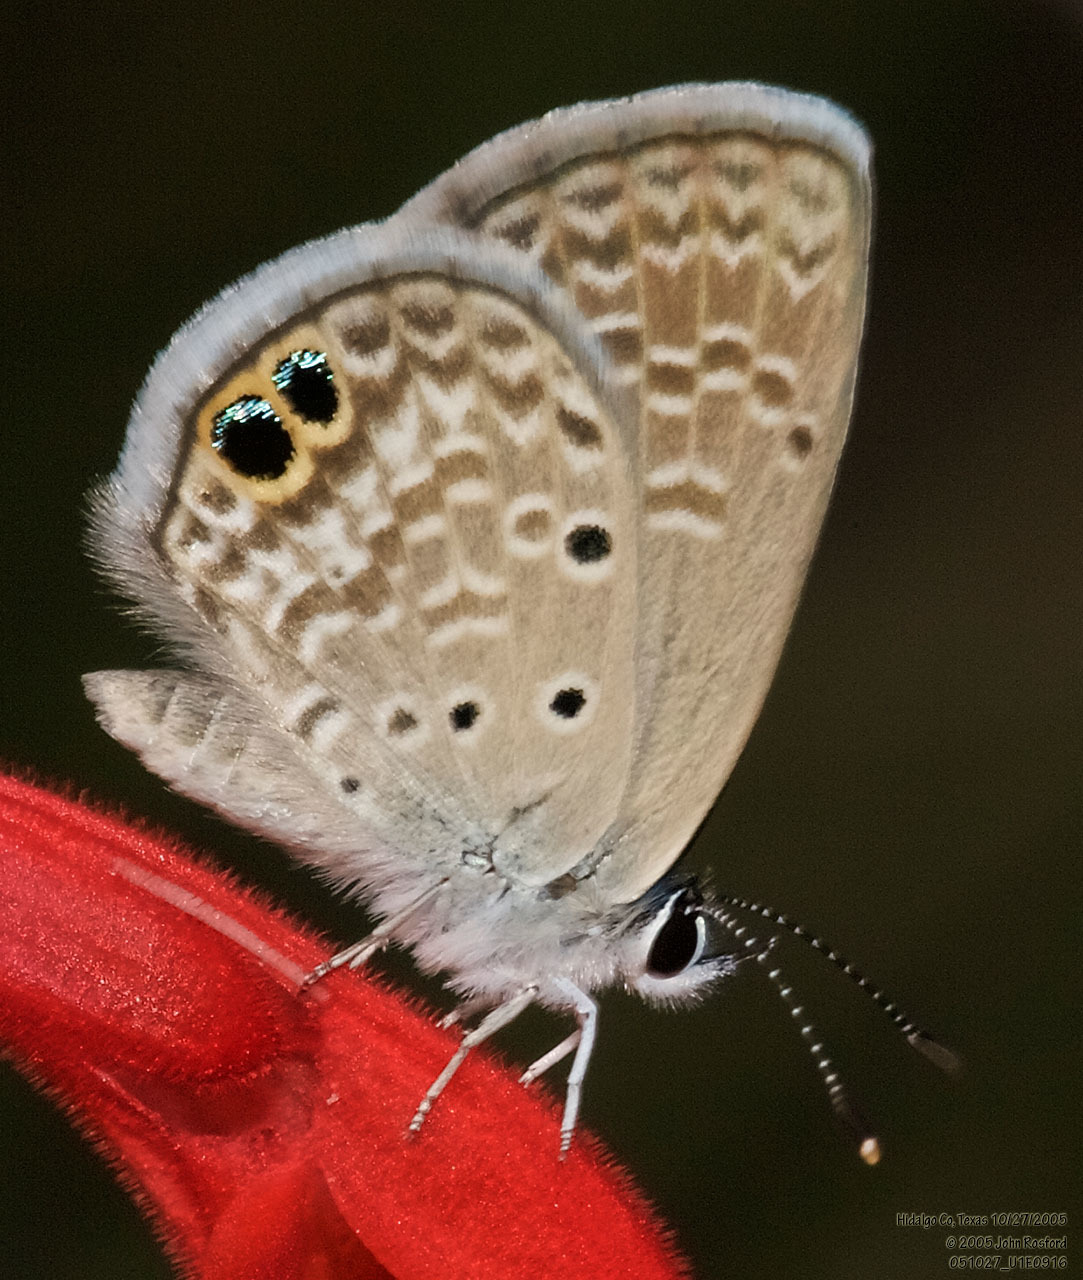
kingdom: Animalia
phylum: Arthropoda
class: Insecta
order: Lepidoptera
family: Lycaenidae
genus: Hemiargus
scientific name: Hemiargus ceraunus
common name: Ceraunus blue
